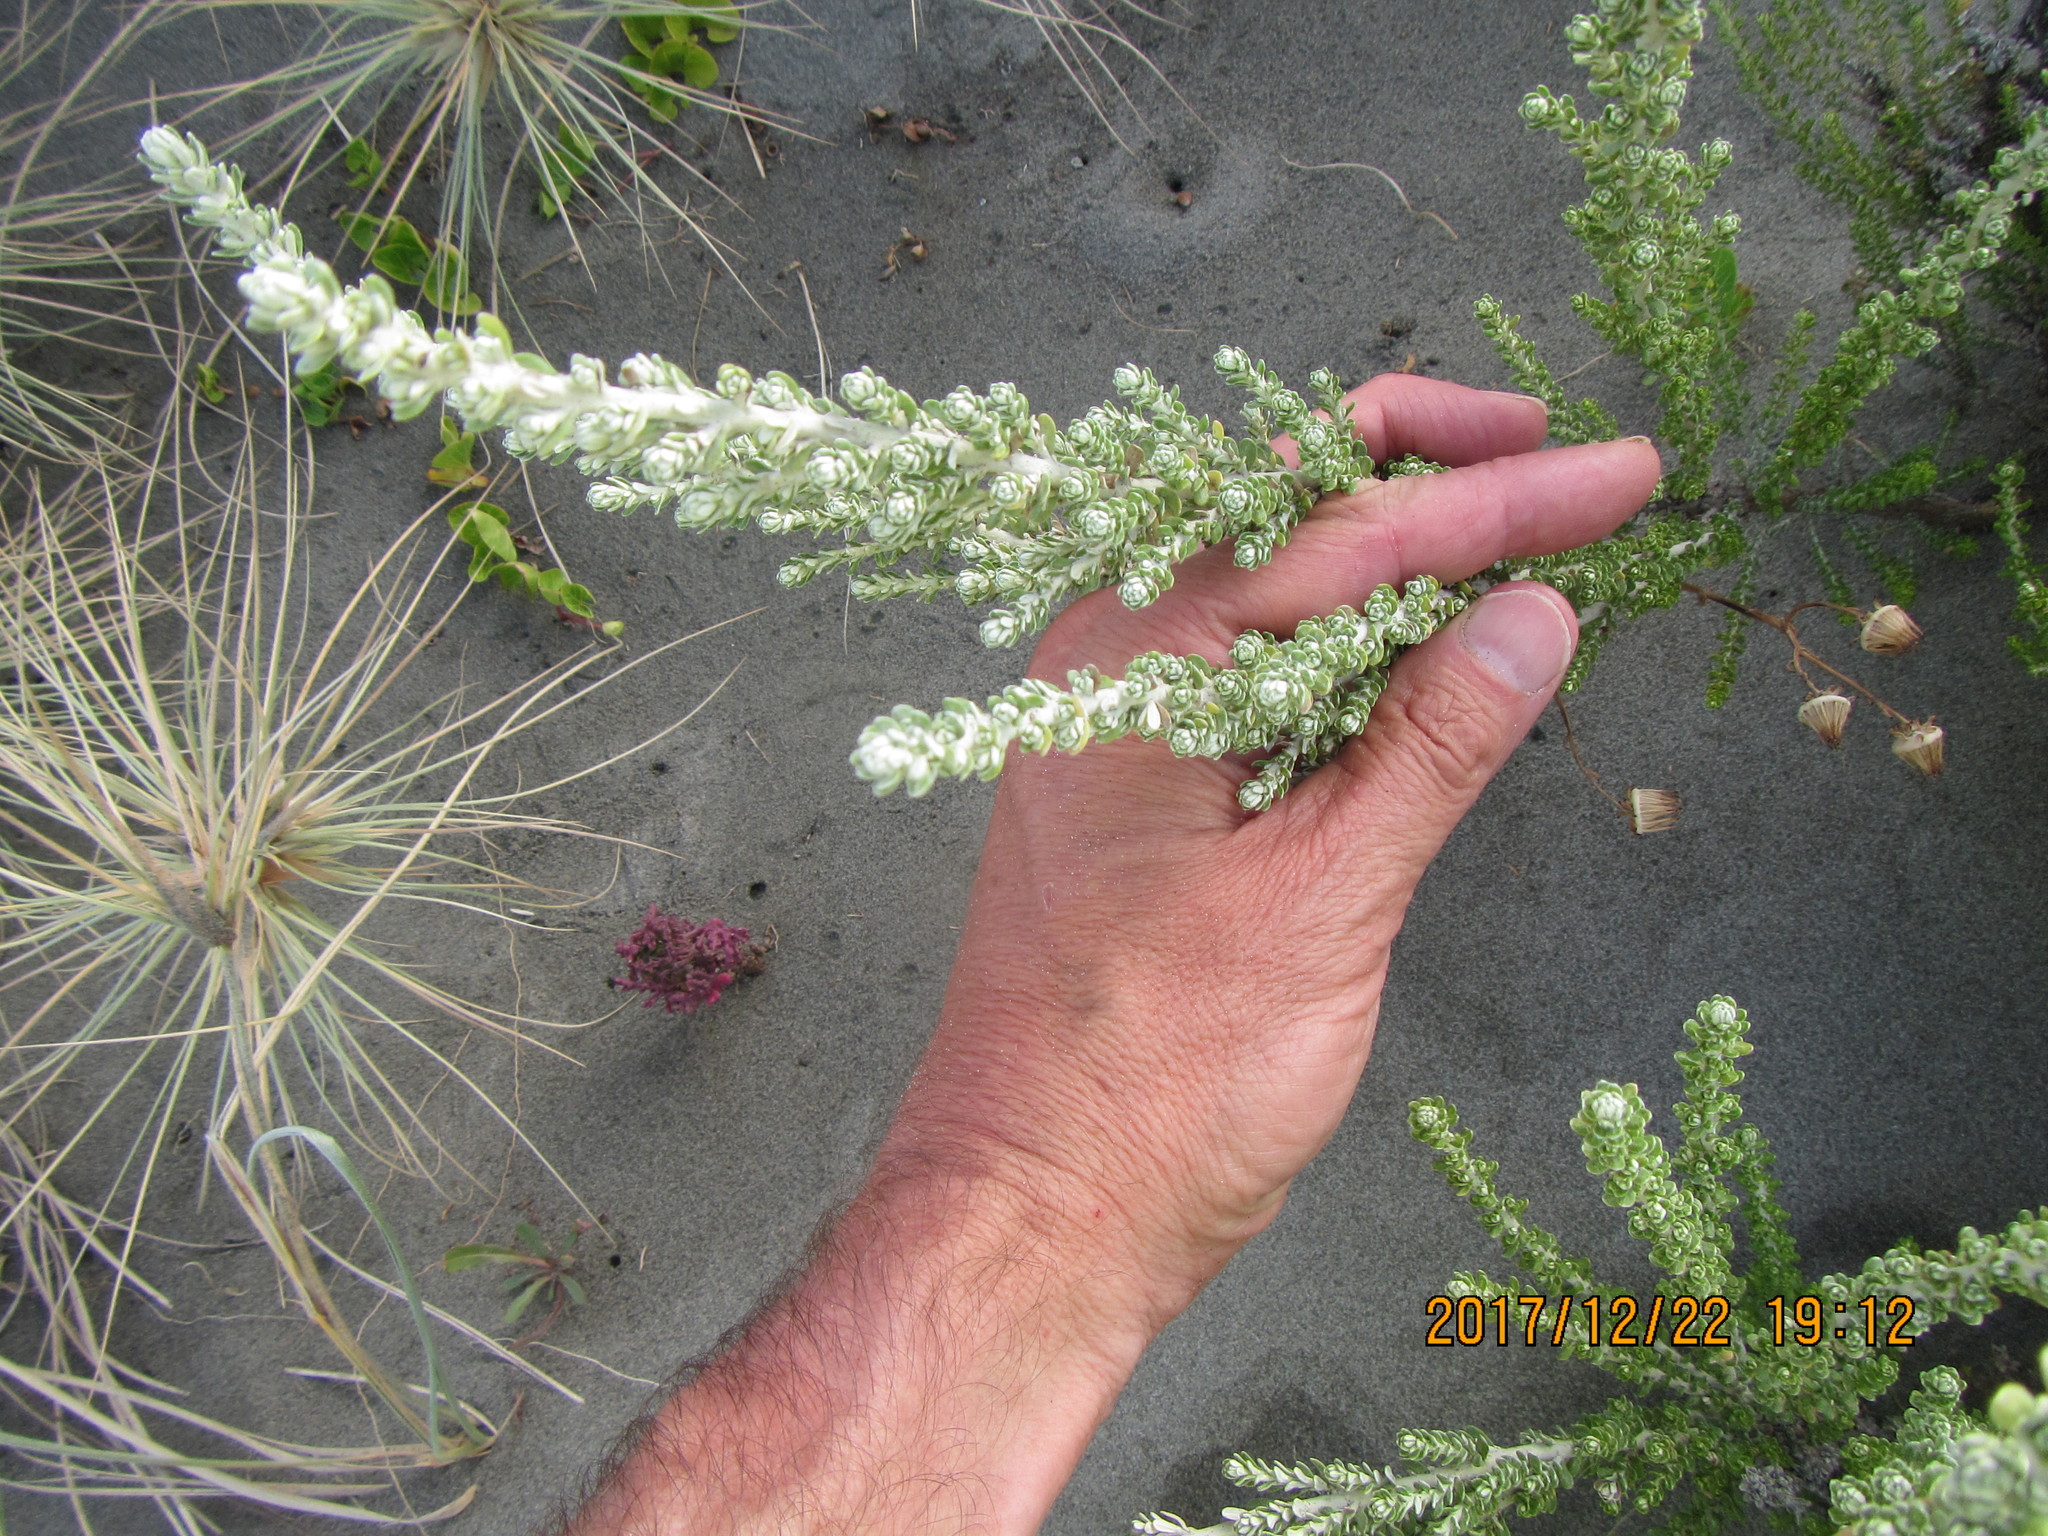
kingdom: Plantae
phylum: Tracheophyta
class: Magnoliopsida
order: Asterales
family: Asteraceae
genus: Ozothamnus
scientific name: Ozothamnus leptophyllus
